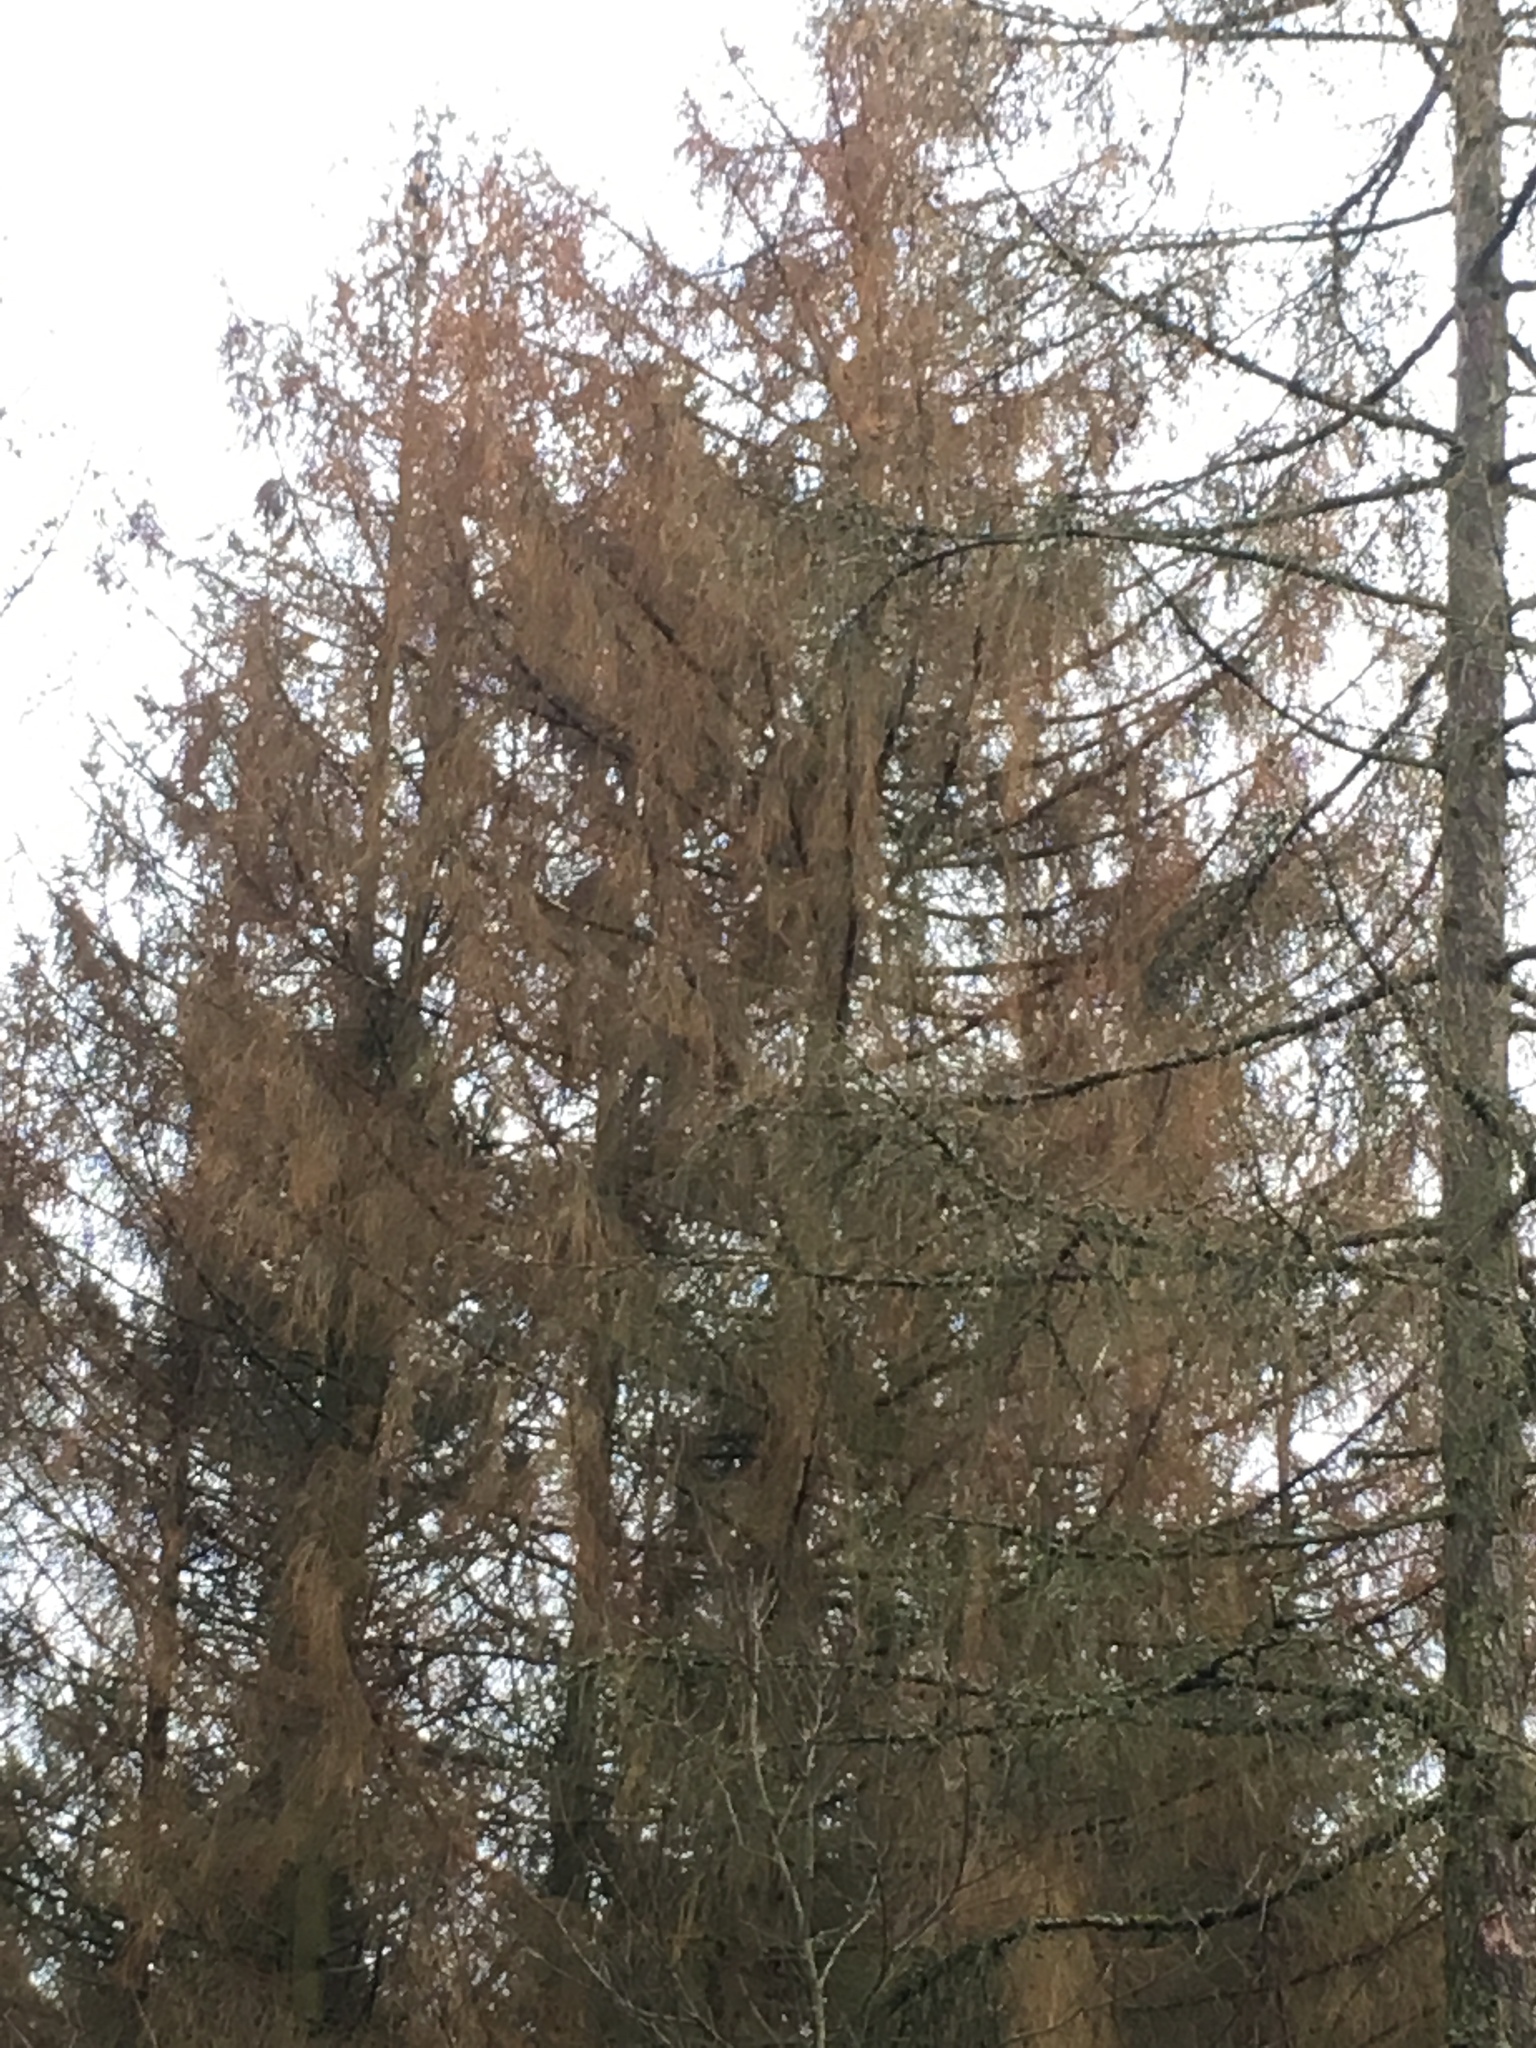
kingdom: Plantae
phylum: Tracheophyta
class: Pinopsida
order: Pinales
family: Pinaceae
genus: Larix
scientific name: Larix decidua
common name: European larch
